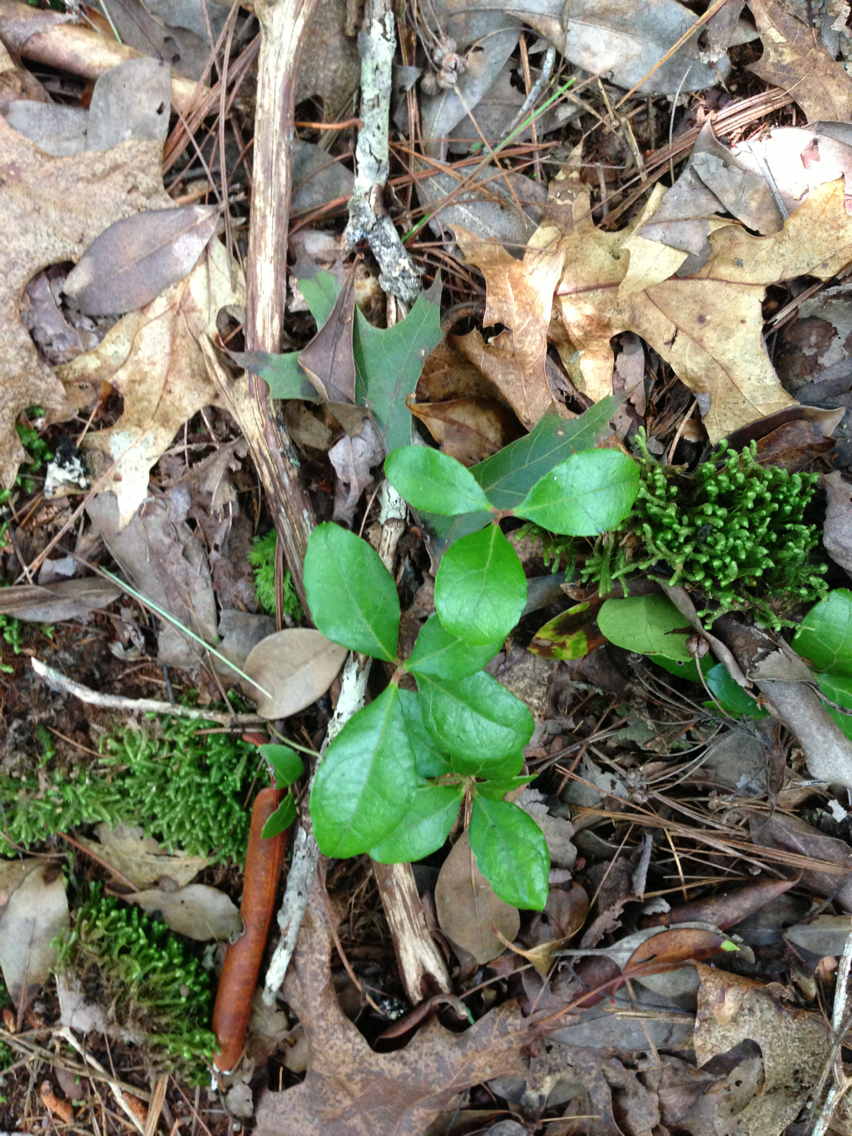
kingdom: Plantae
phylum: Tracheophyta
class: Magnoliopsida
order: Ericales
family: Ericaceae
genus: Gaultheria
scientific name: Gaultheria procumbens
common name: Checkerberry
